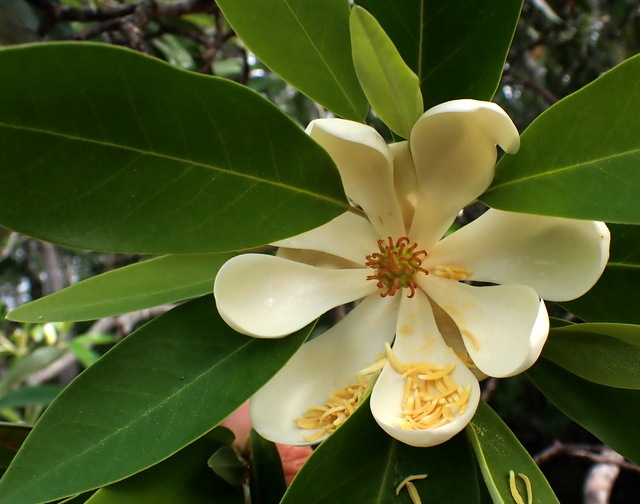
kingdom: Plantae
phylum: Tracheophyta
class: Magnoliopsida
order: Magnoliales
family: Magnoliaceae
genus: Magnolia
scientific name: Magnolia virginiana
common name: Swamp bay
